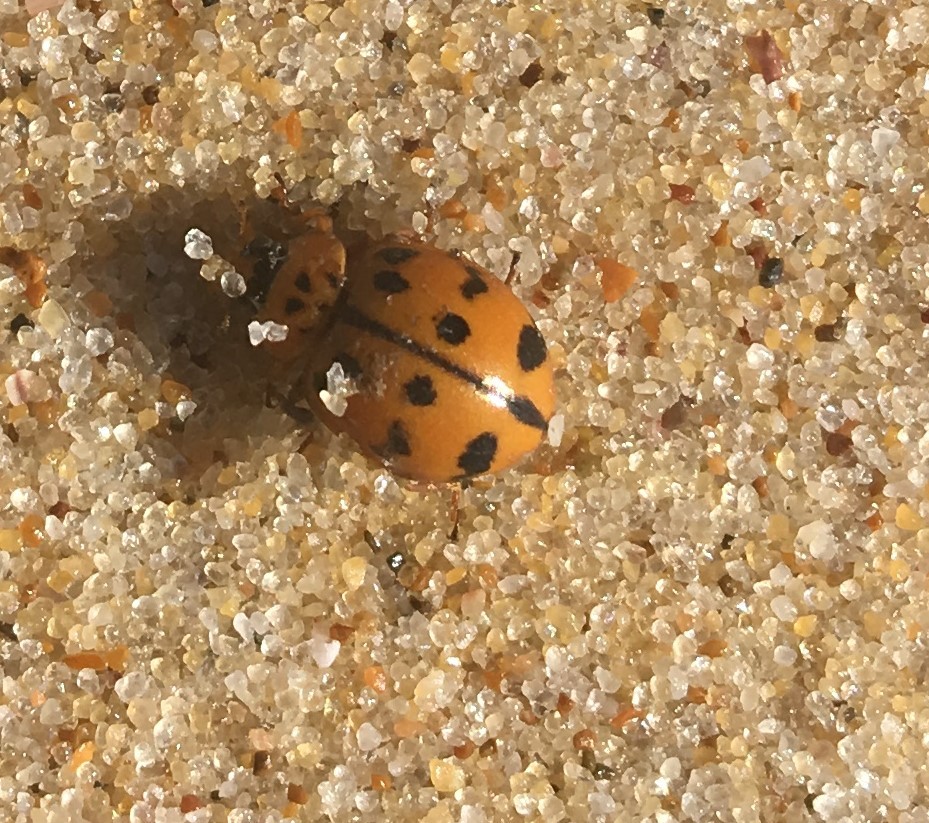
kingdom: Animalia
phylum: Arthropoda
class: Insecta
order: Coleoptera
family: Coccinellidae
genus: Harmonia
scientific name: Harmonia octomaculata
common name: Lady beetle
